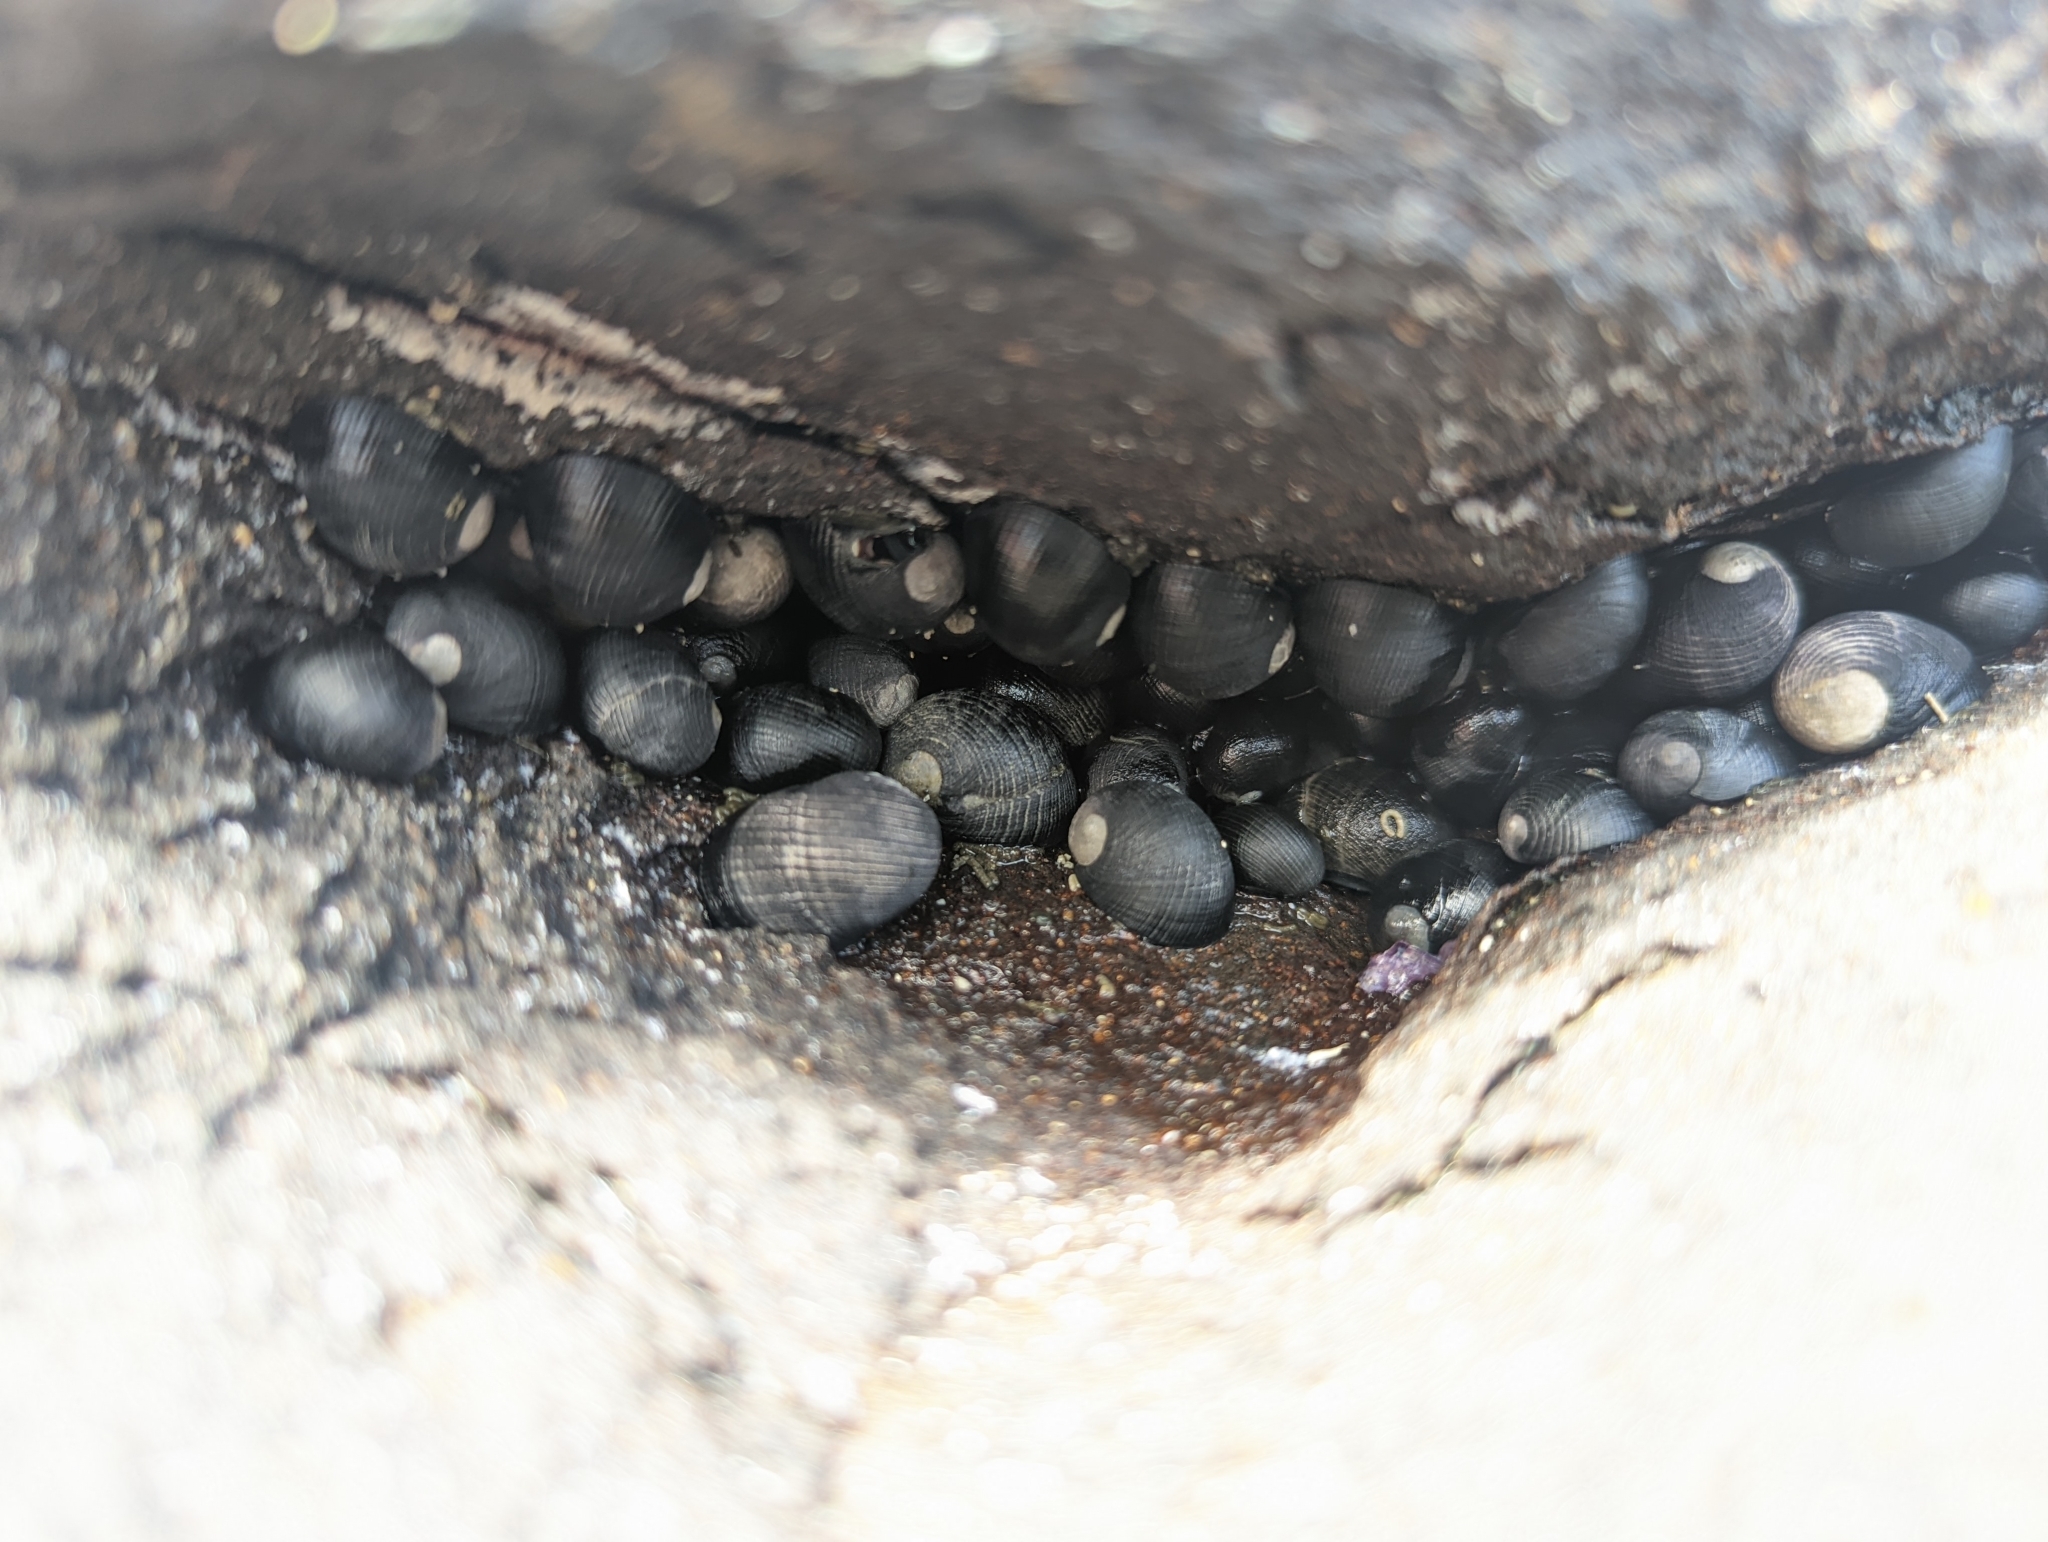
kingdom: Animalia
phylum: Mollusca
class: Gastropoda
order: Cycloneritida
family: Neritidae
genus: Nerita
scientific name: Nerita picea
